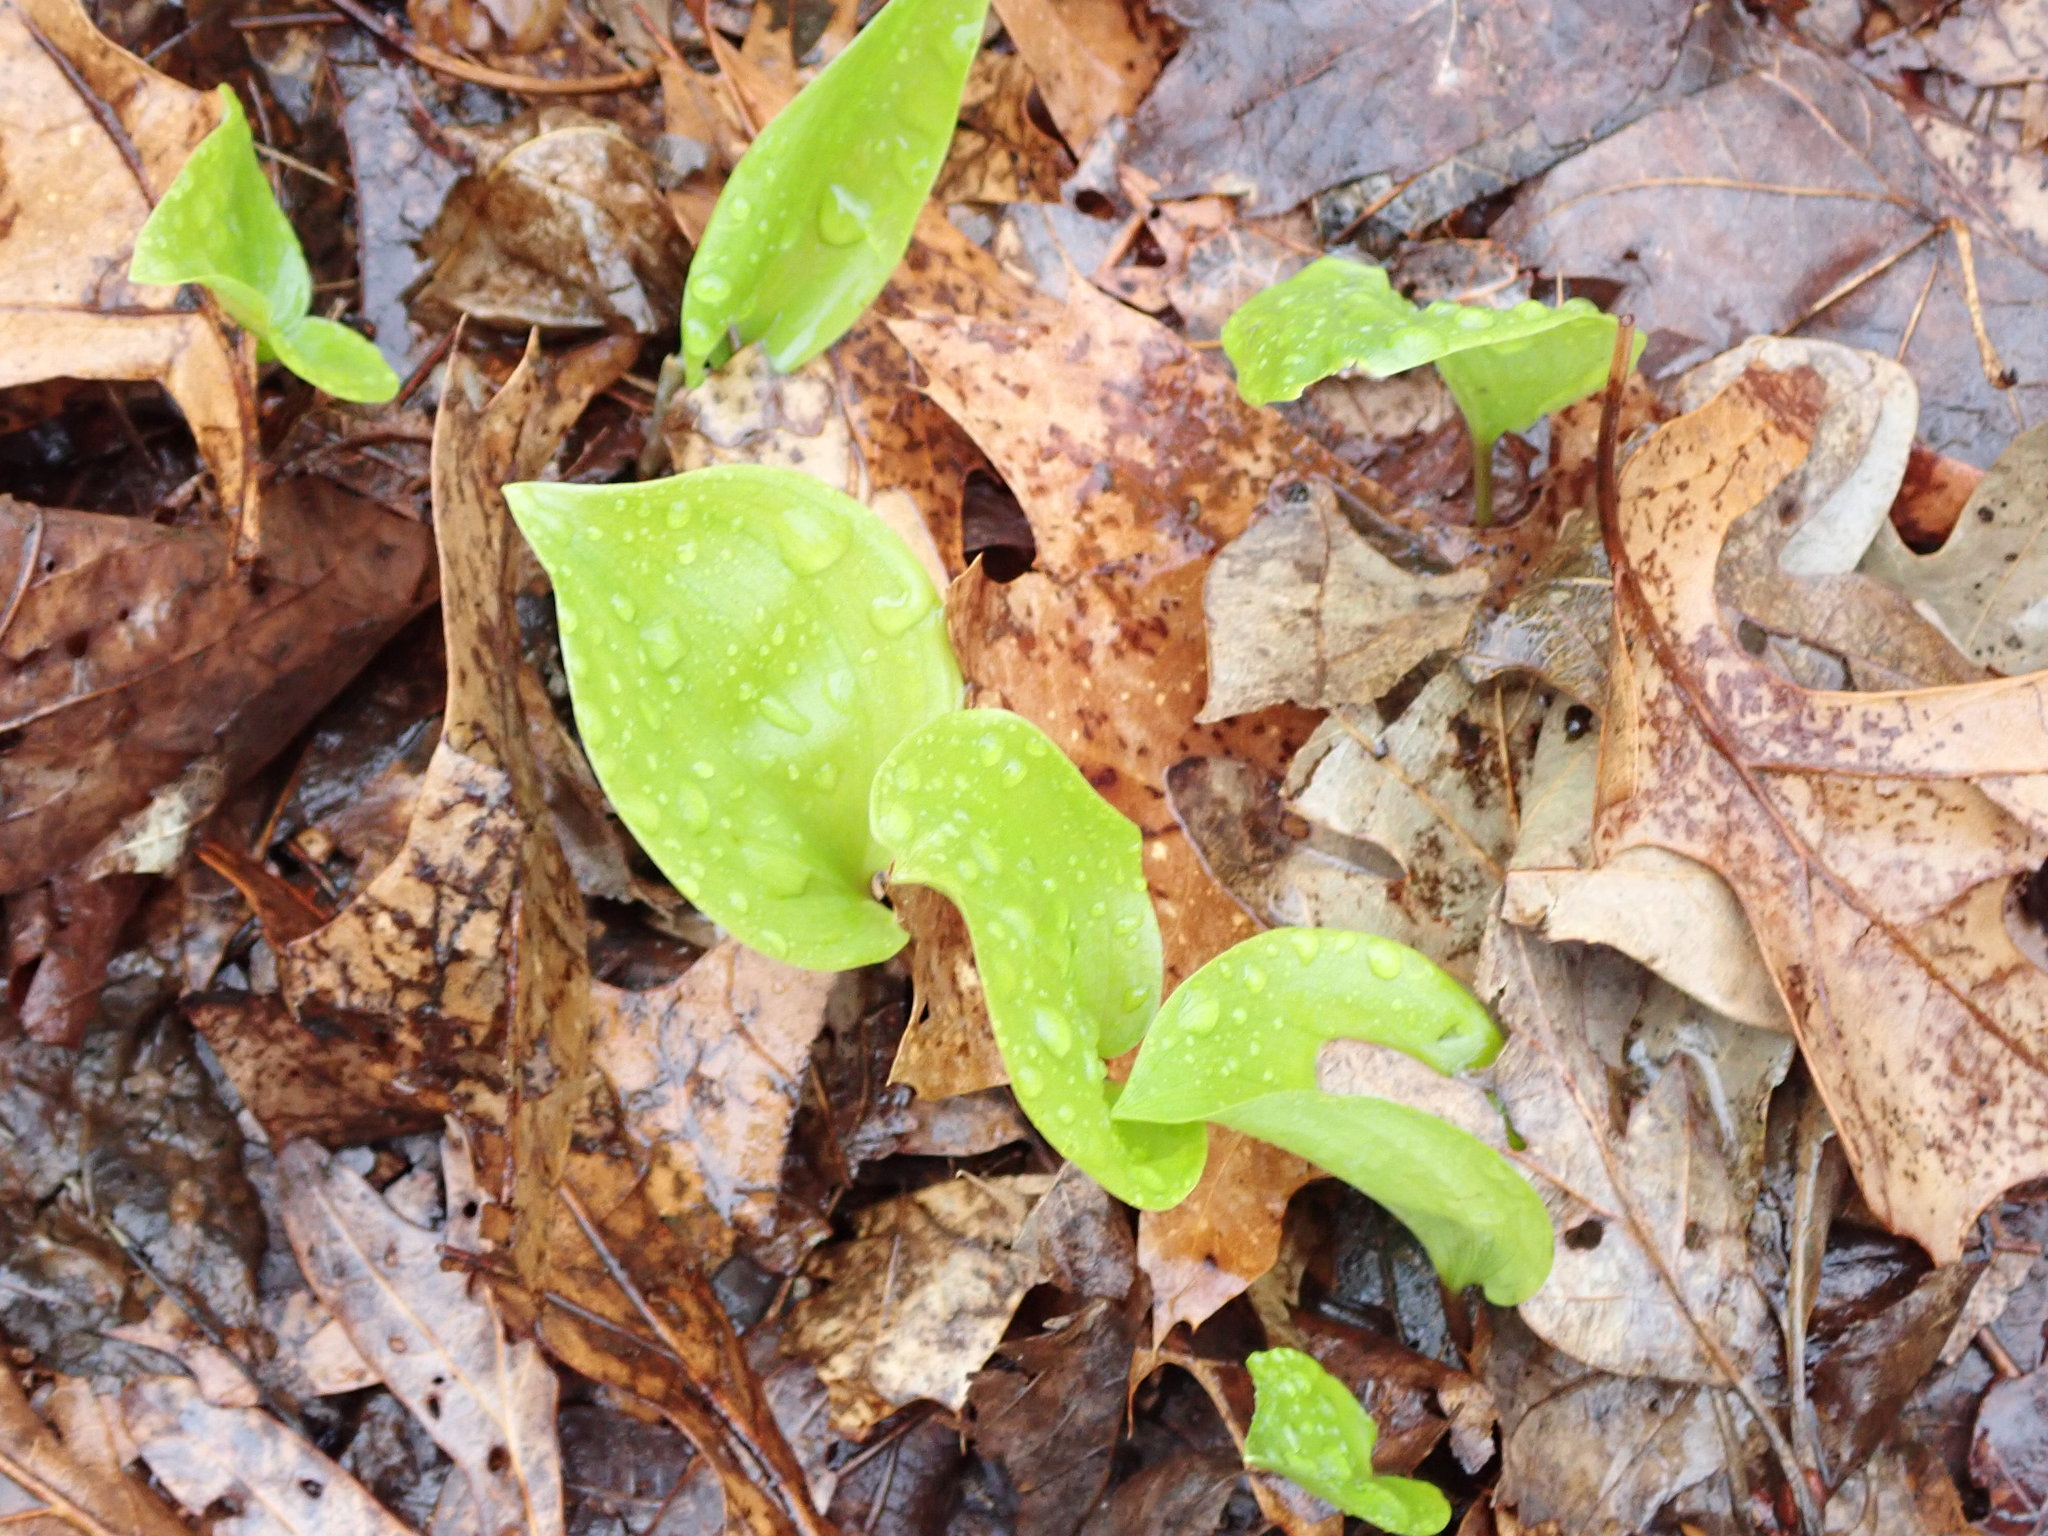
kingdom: Plantae
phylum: Tracheophyta
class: Liliopsida
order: Asparagales
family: Asparagaceae
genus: Maianthemum
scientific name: Maianthemum canadense
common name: False lily-of-the-valley
